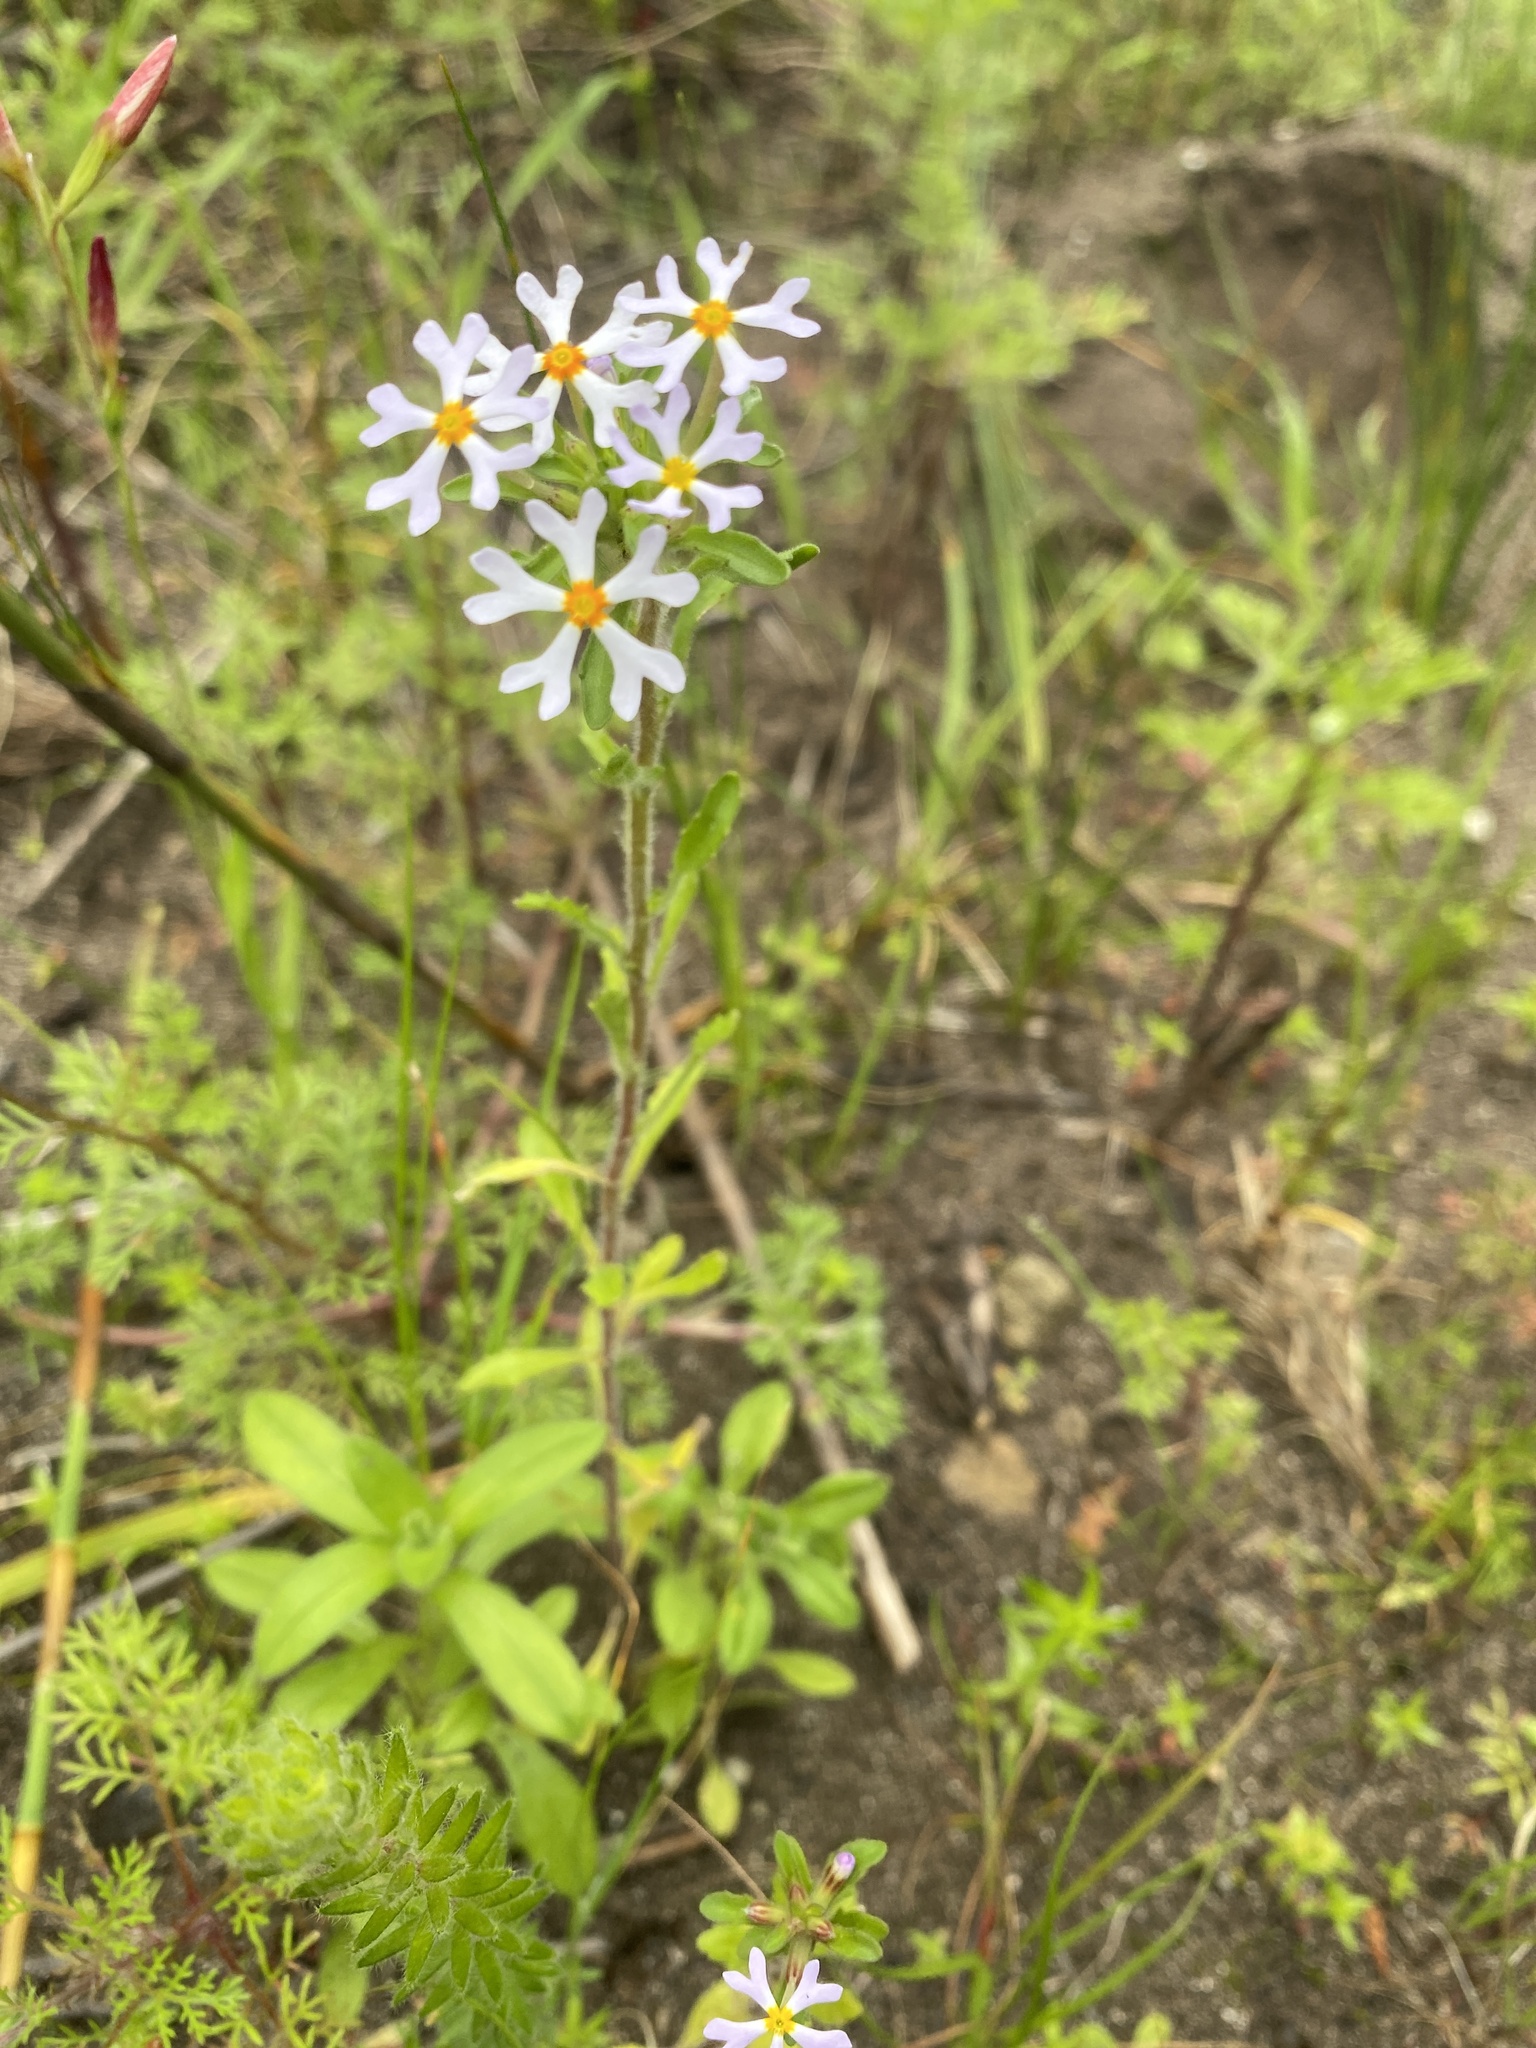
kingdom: Plantae
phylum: Tracheophyta
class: Magnoliopsida
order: Lamiales
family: Scrophulariaceae
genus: Zaluzianskya
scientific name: Zaluzianskya villosa
